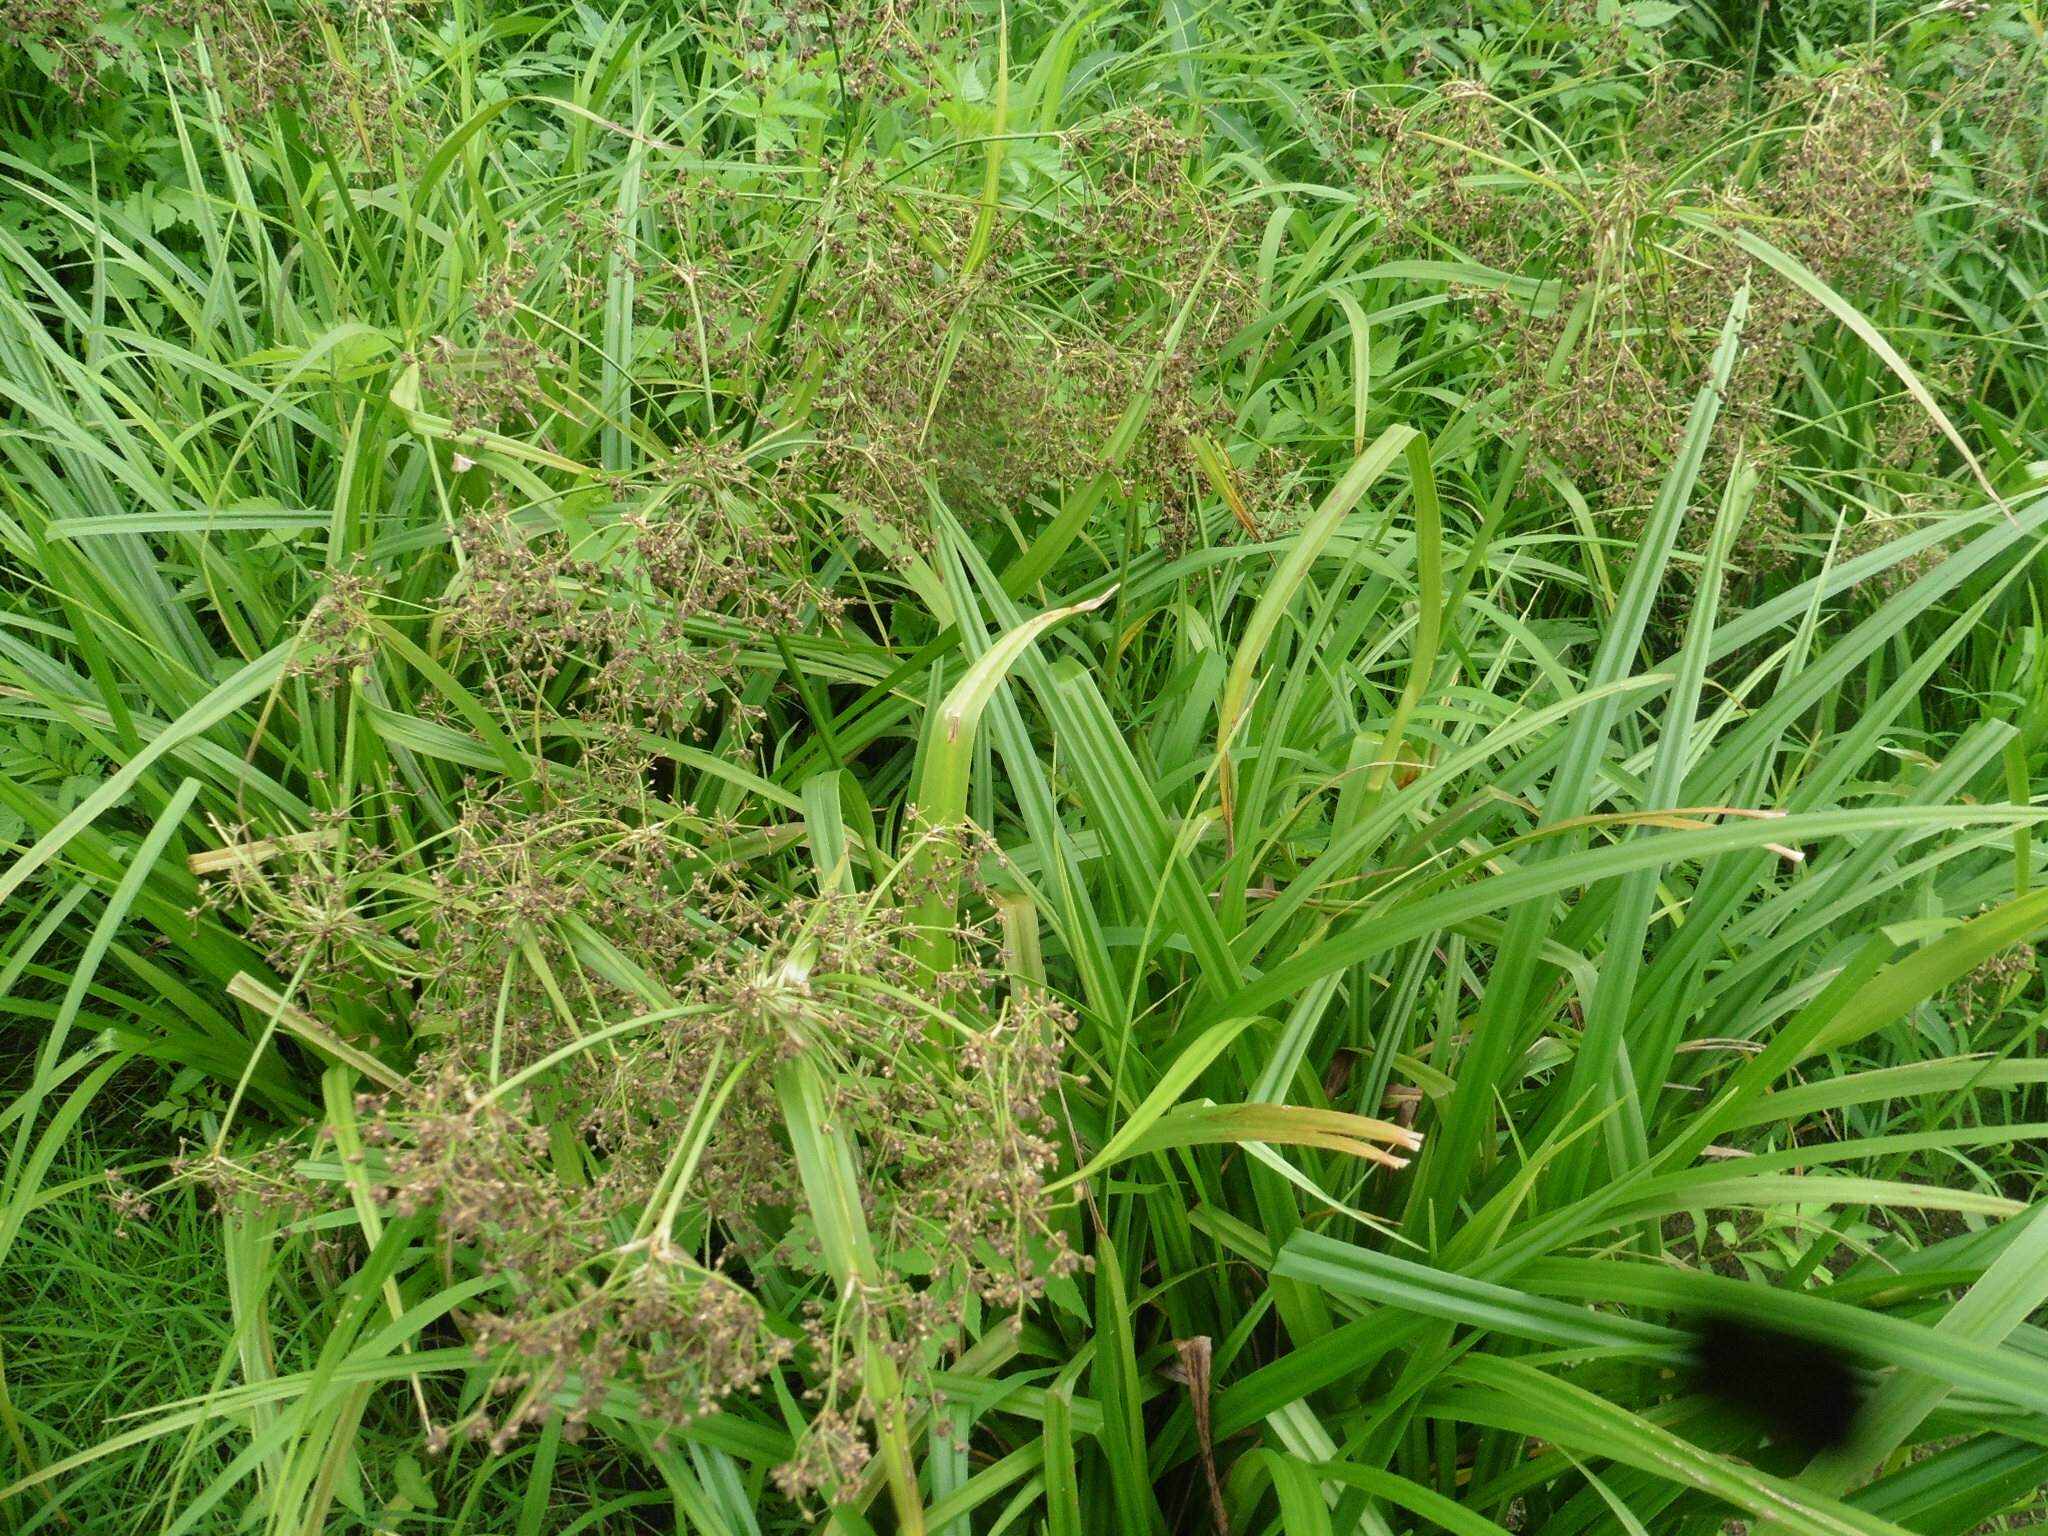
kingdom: Plantae
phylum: Tracheophyta
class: Liliopsida
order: Poales
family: Cyperaceae
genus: Scirpus
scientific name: Scirpus sylvaticus
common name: Wood club-rush
